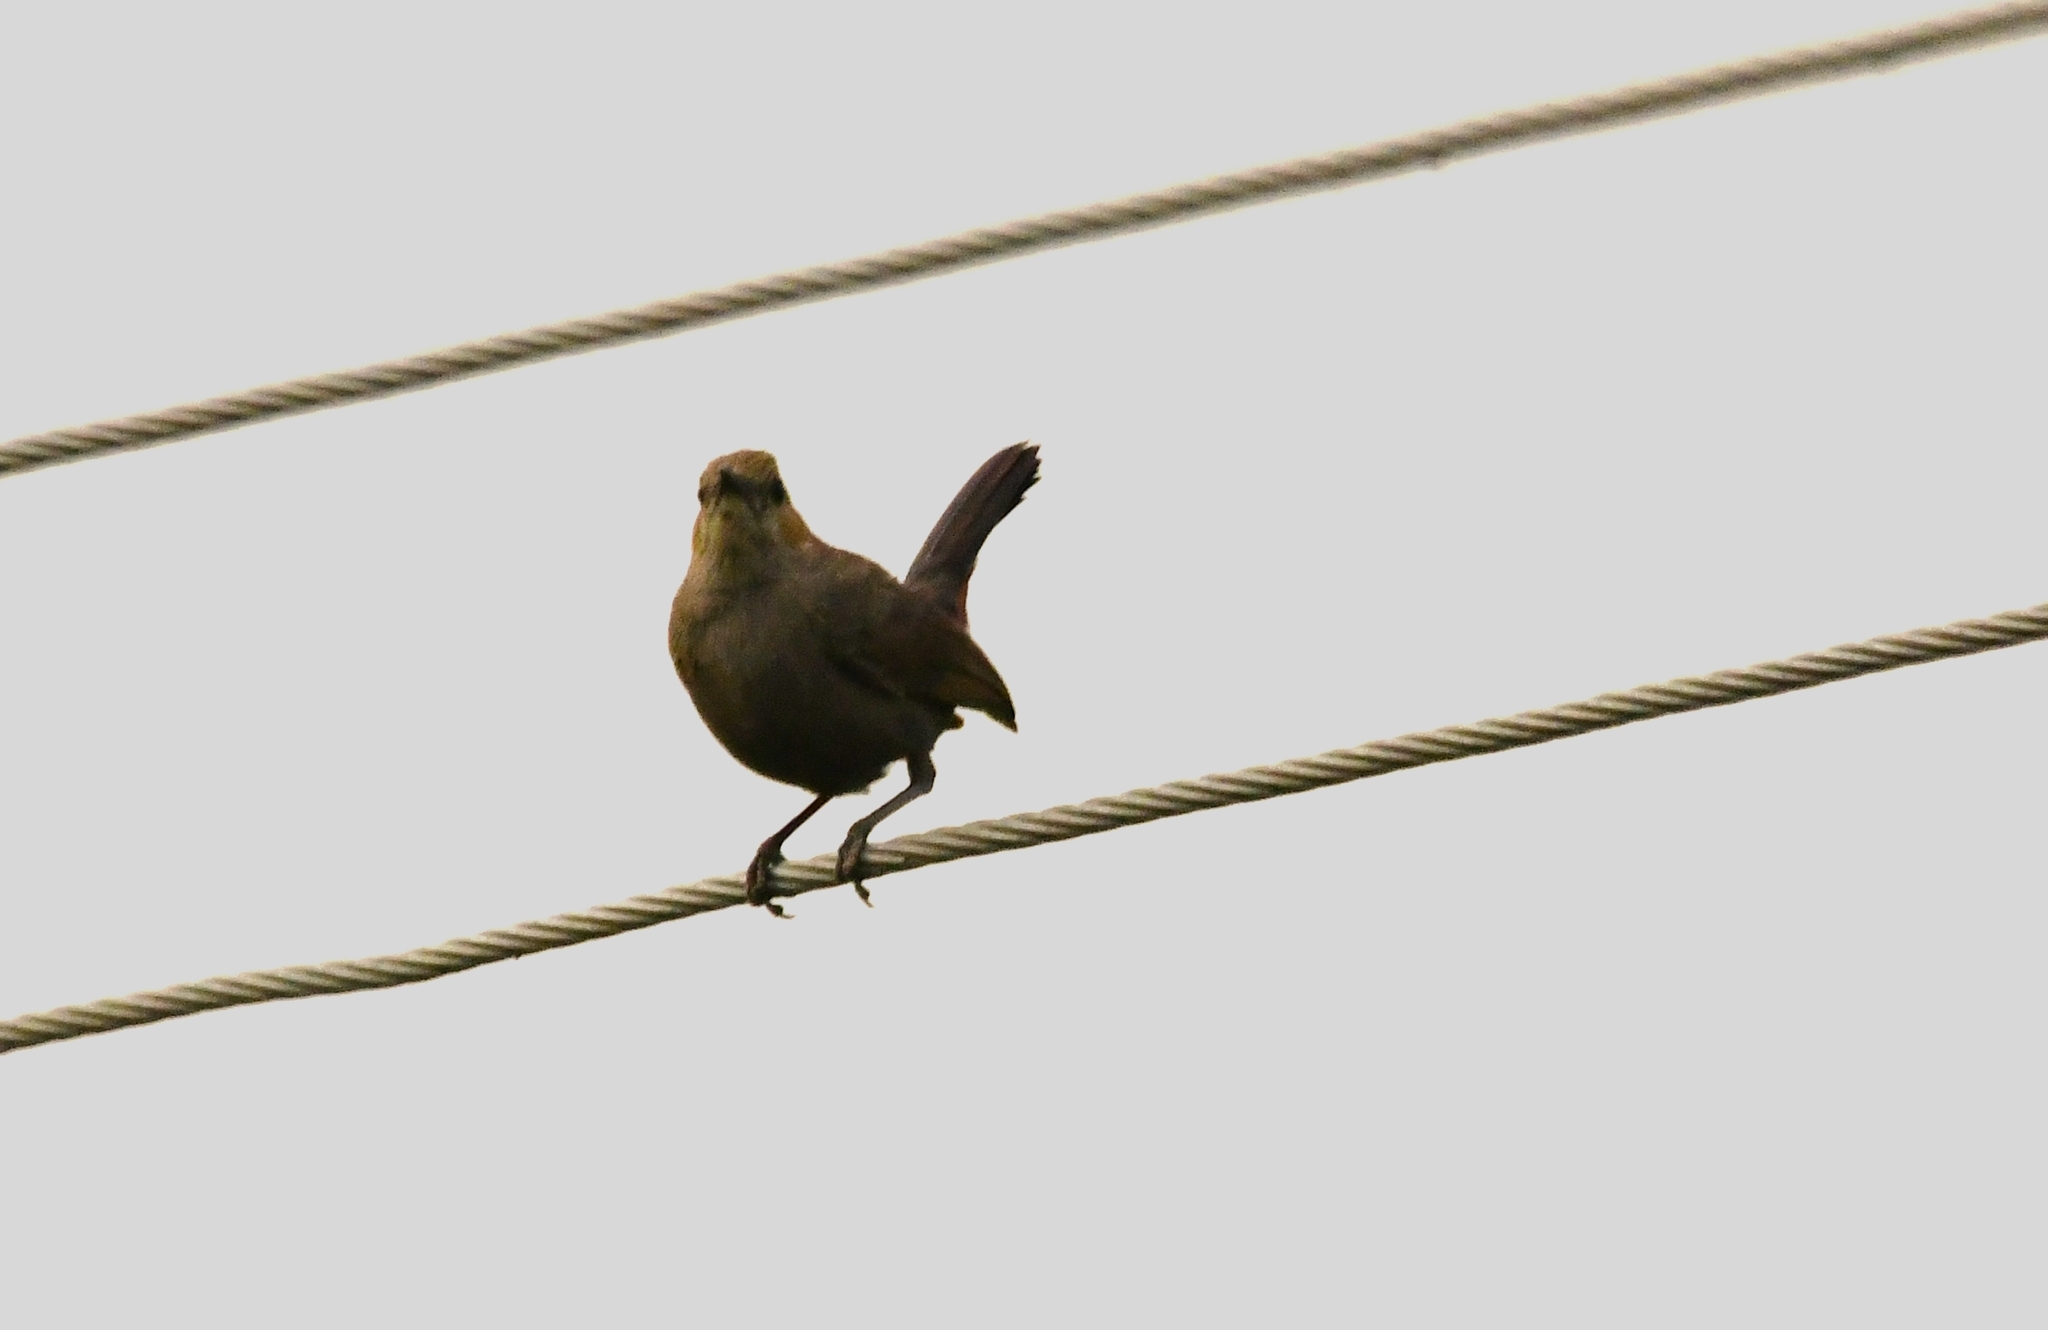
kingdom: Animalia
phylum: Chordata
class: Aves
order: Passeriformes
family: Muscicapidae
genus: Saxicoloides
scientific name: Saxicoloides fulicatus
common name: Indian robin
